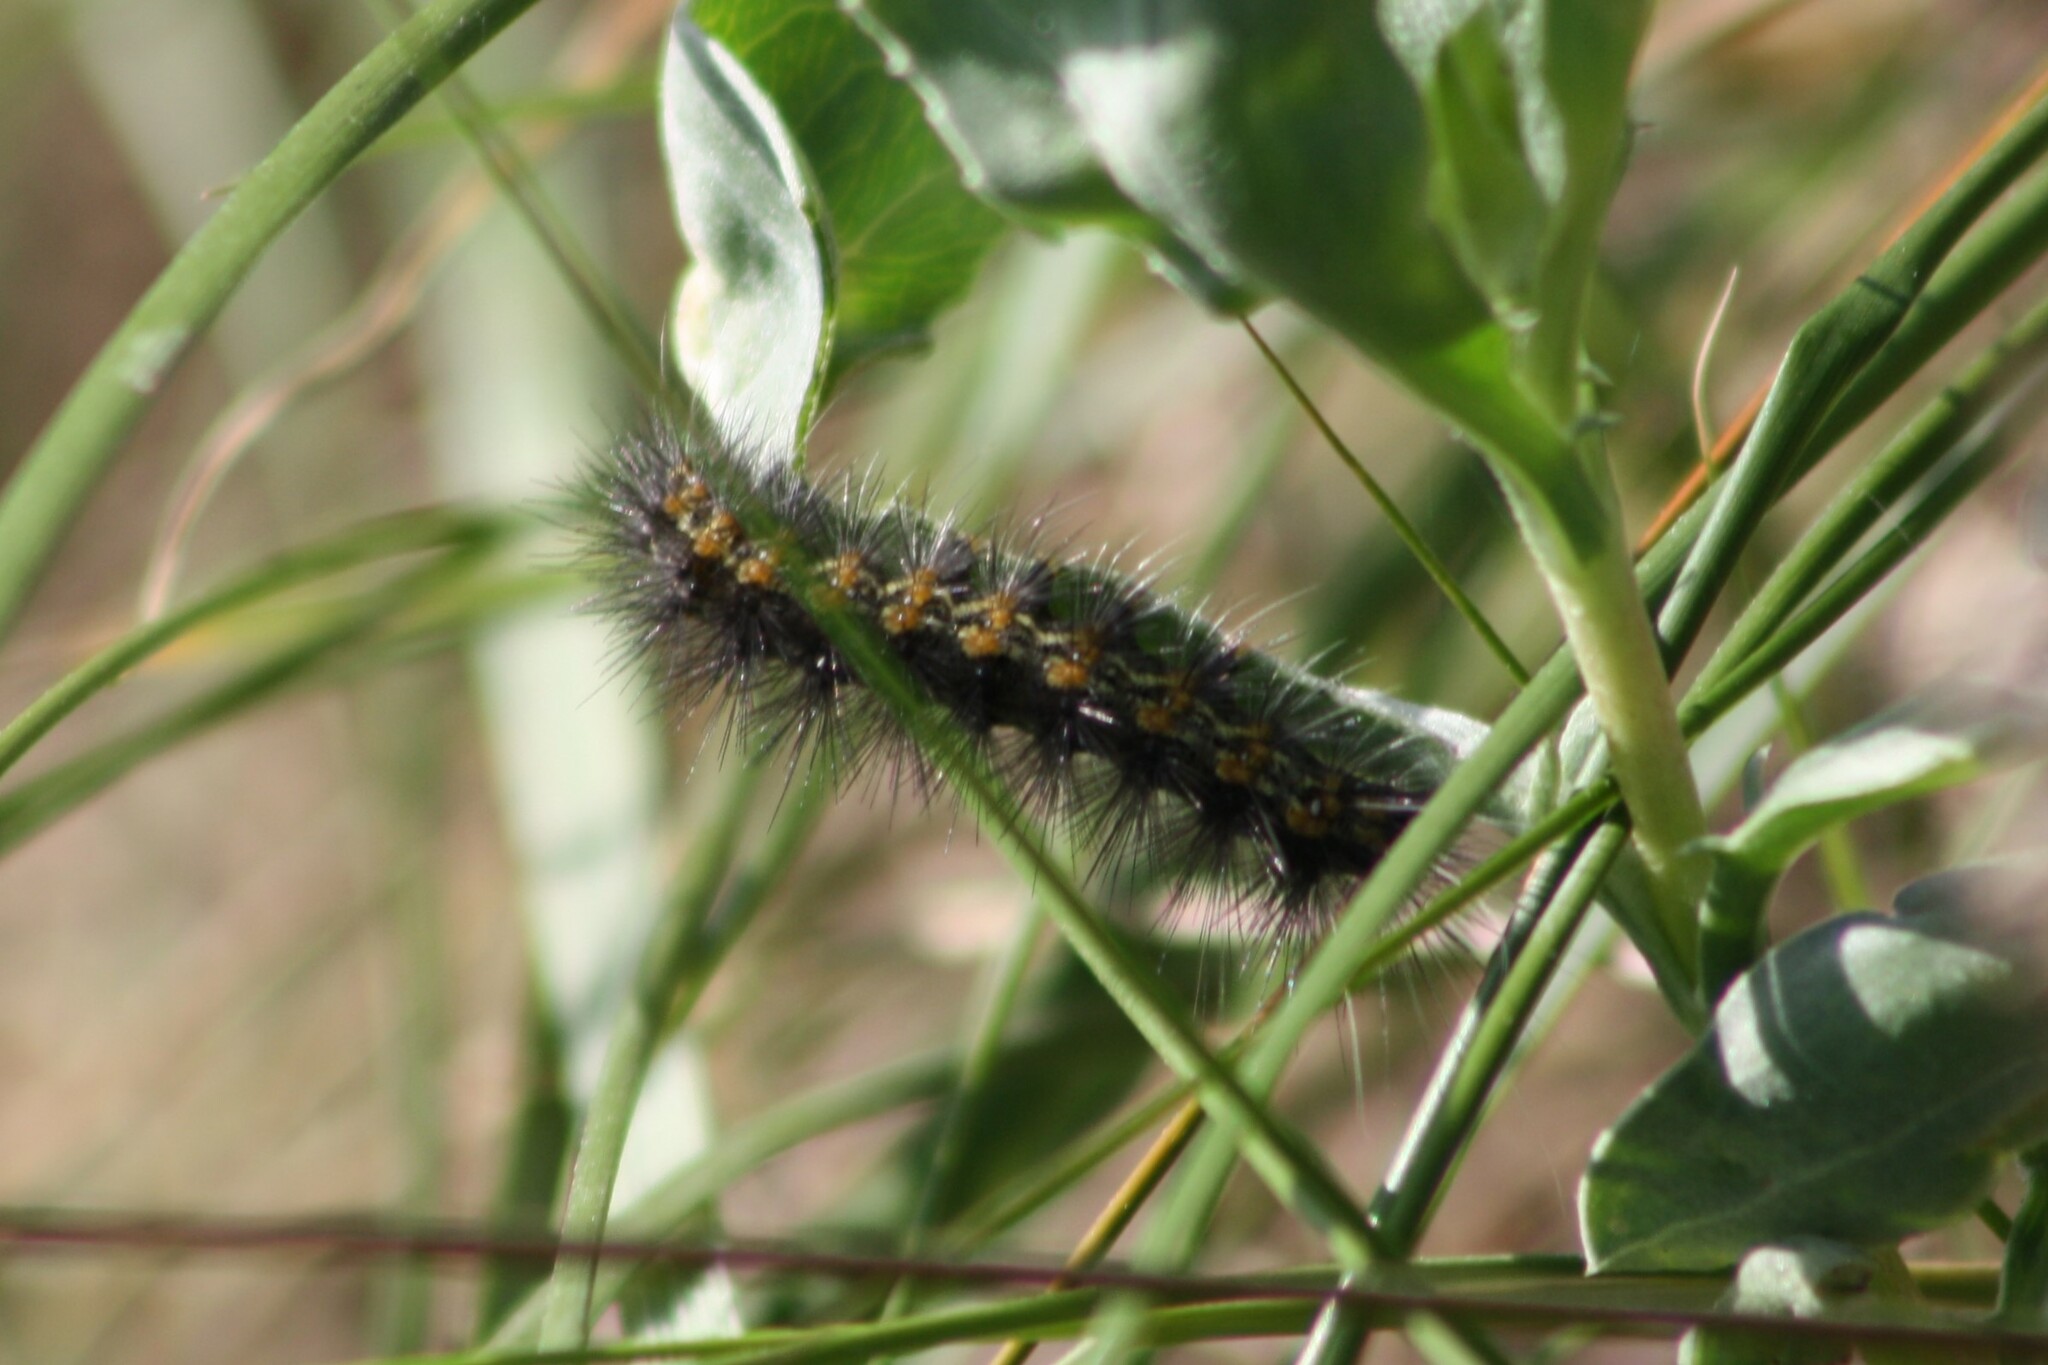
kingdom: Animalia
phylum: Arthropoda
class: Insecta
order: Lepidoptera
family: Erebidae
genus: Estigmene
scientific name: Estigmene acrea
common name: Salt marsh moth
